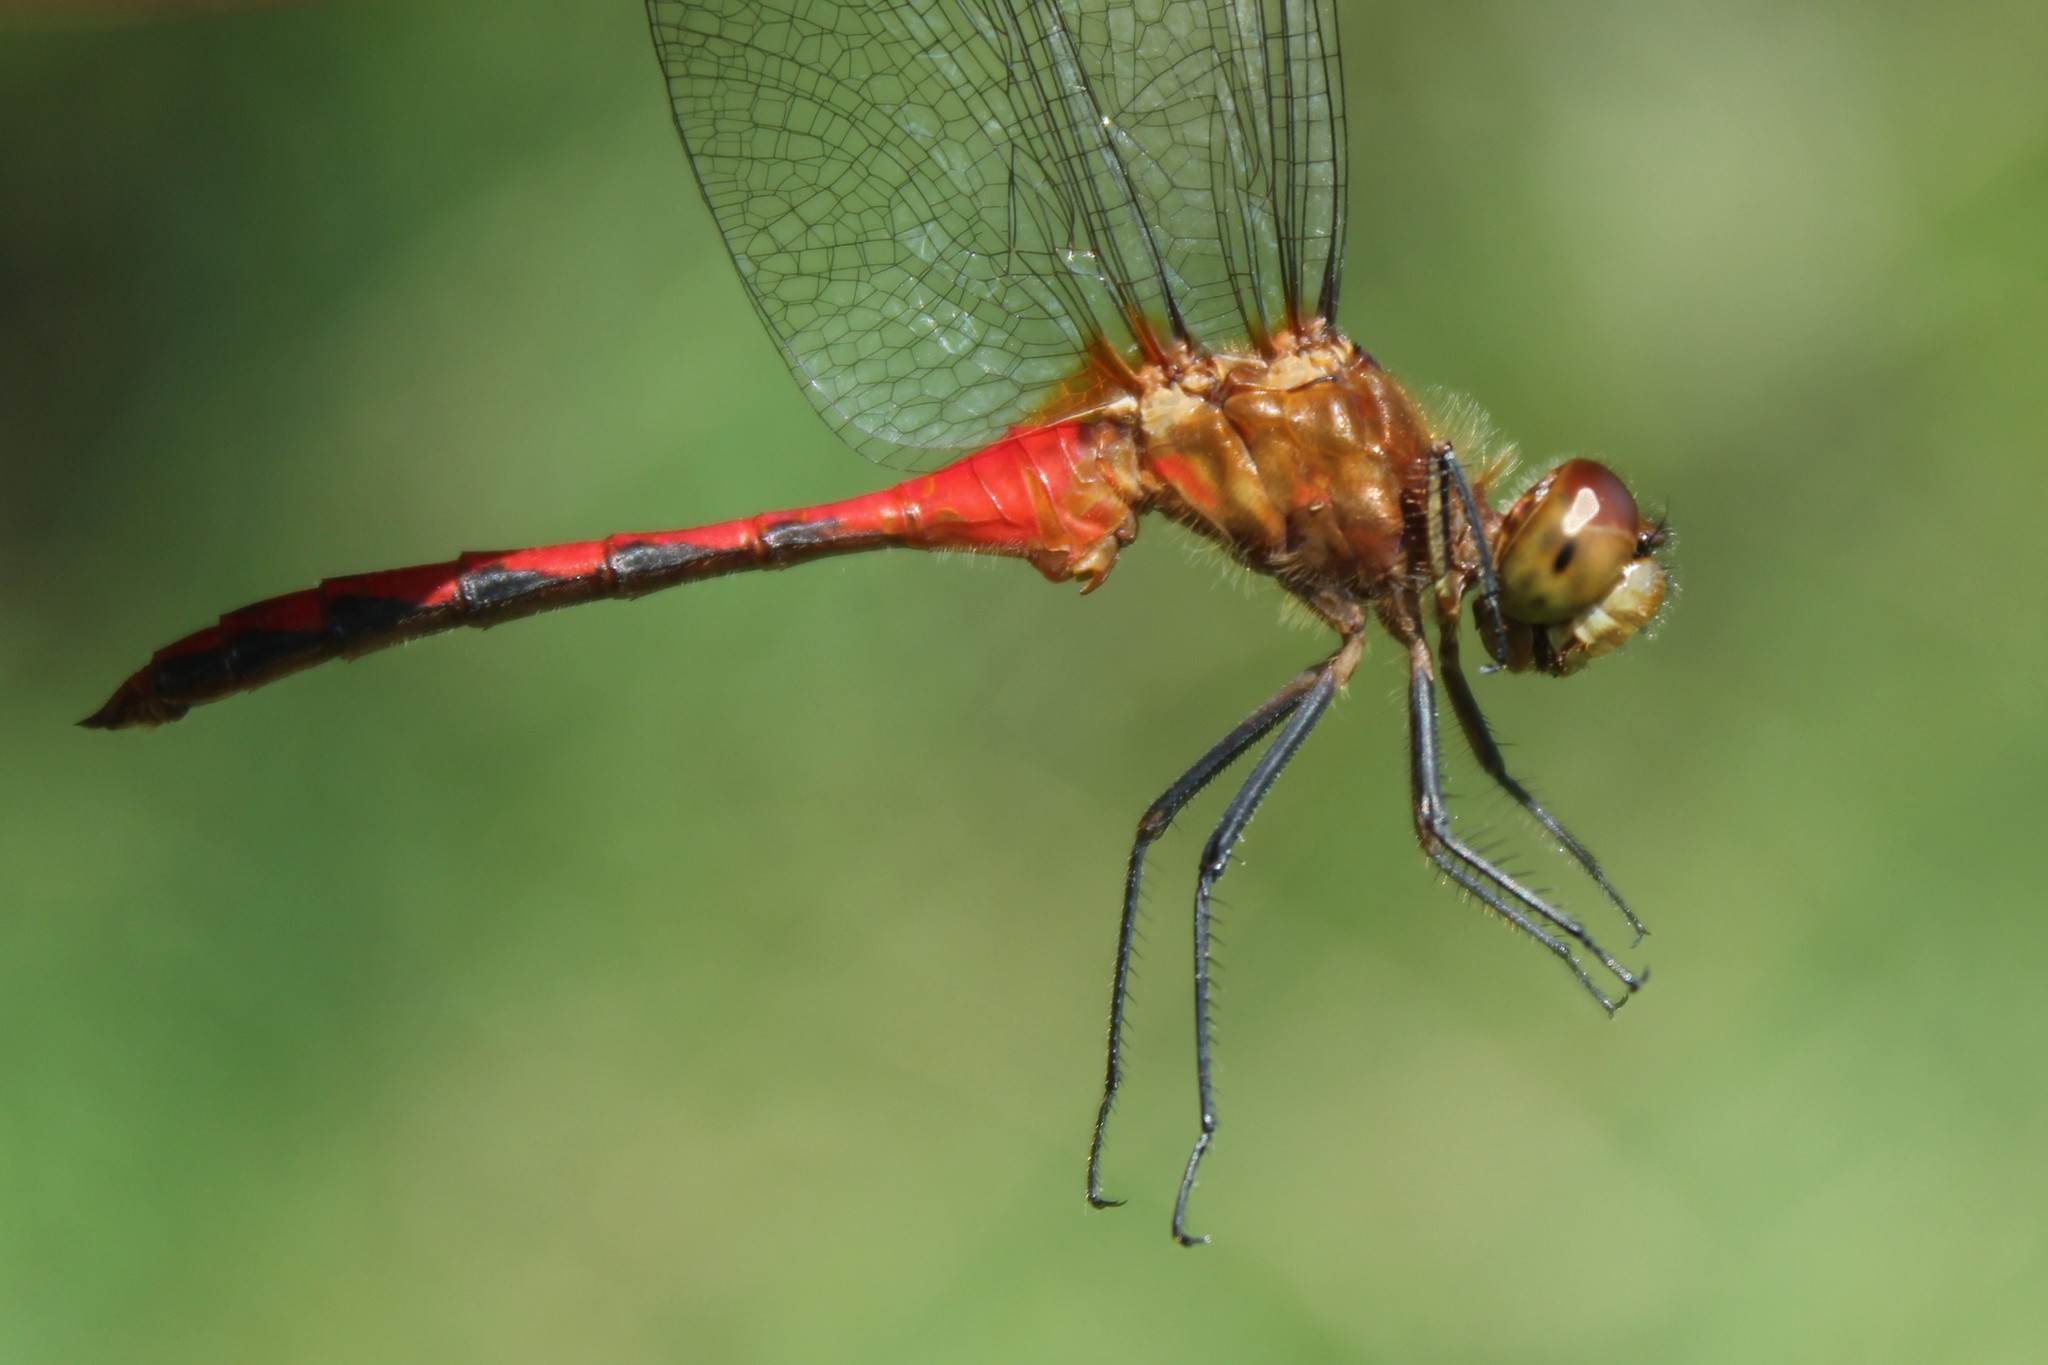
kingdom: Animalia
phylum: Arthropoda
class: Insecta
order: Odonata
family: Libellulidae
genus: Sympetrum
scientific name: Sympetrum rubicundulum
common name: Ruby meadowhawk
